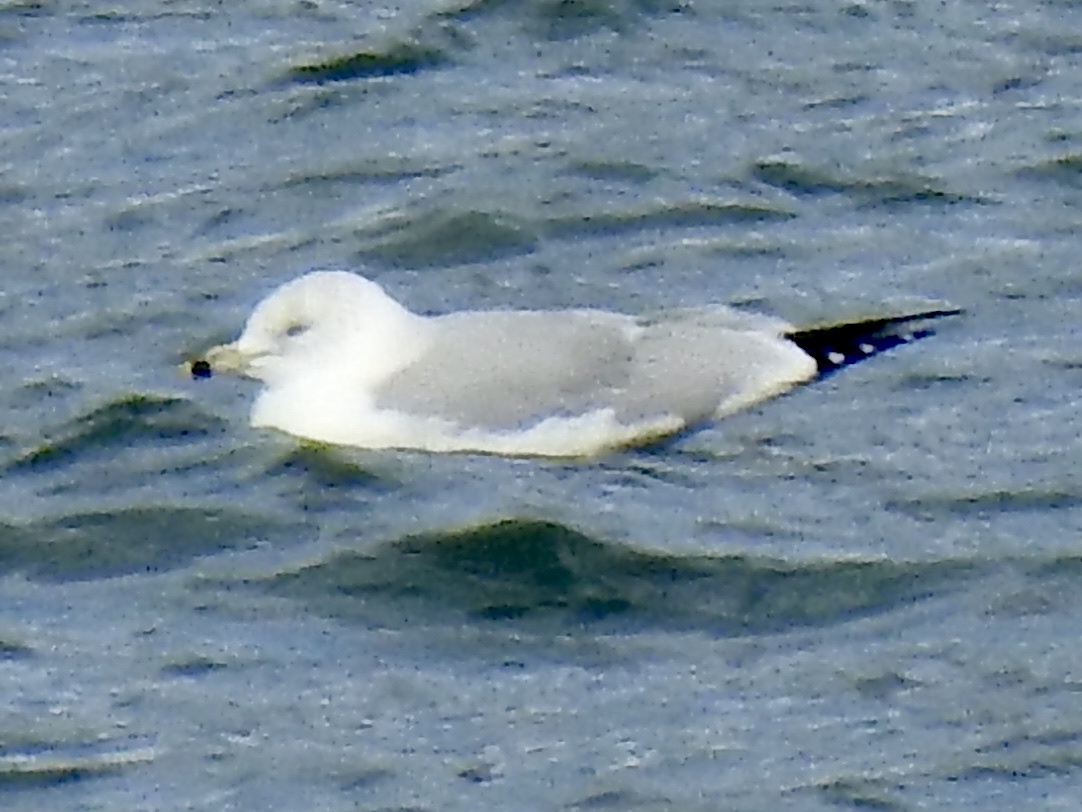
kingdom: Animalia
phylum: Chordata
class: Aves
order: Charadriiformes
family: Laridae
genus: Larus
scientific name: Larus delawarensis
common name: Ring-billed gull
